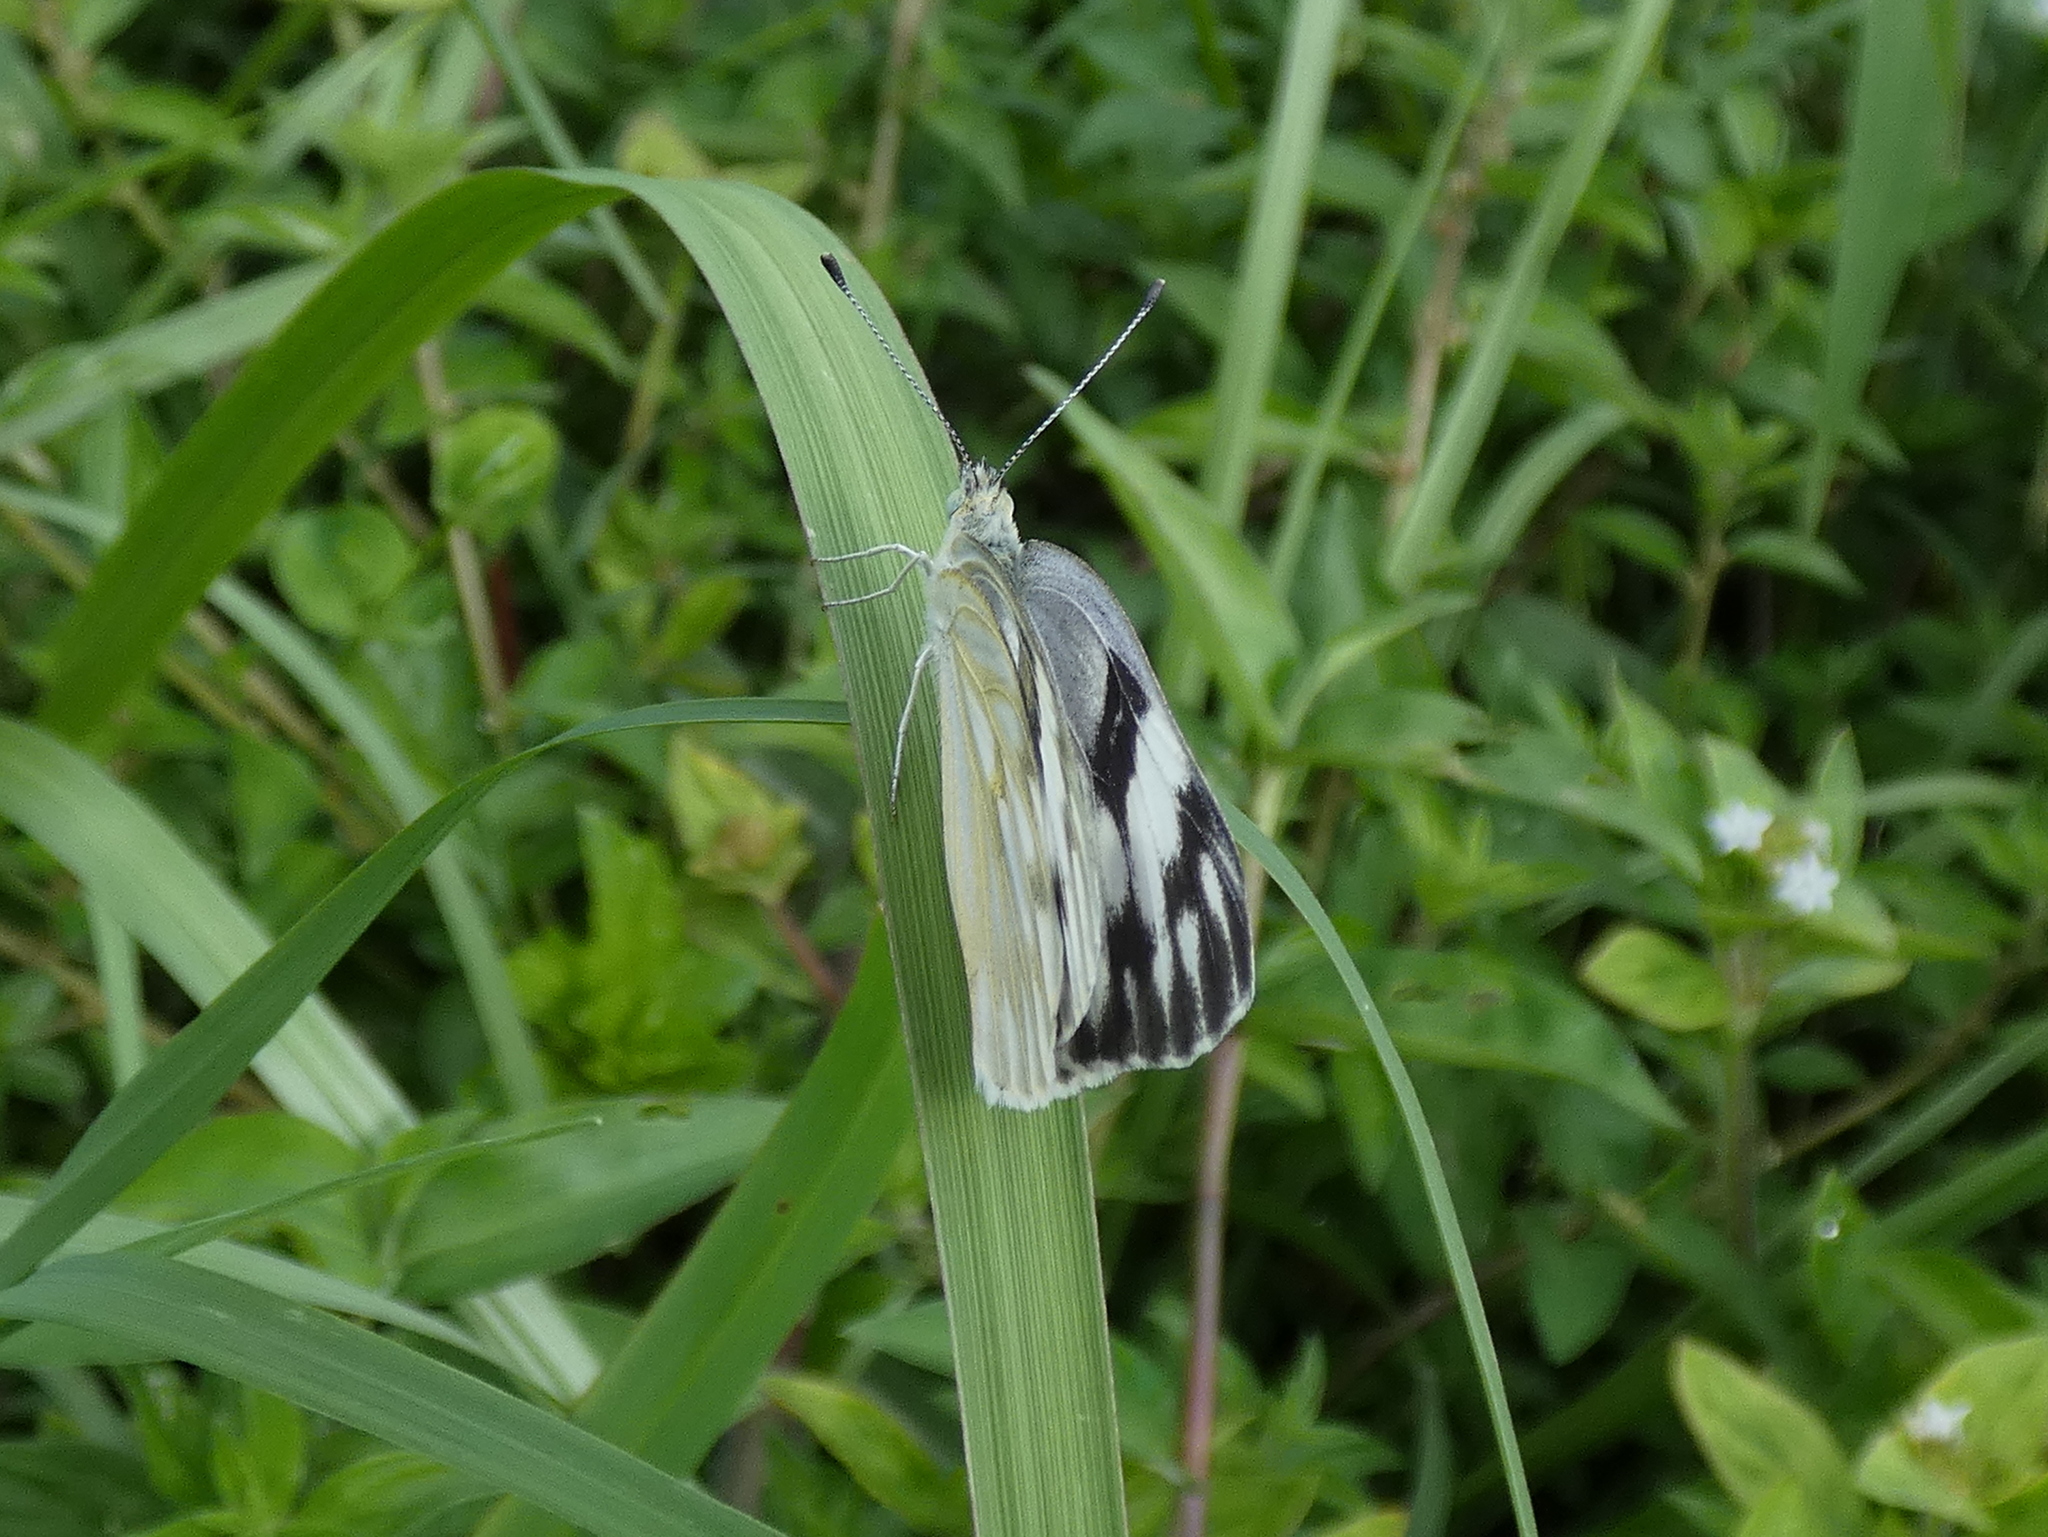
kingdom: Animalia
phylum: Arthropoda
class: Insecta
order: Lepidoptera
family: Pieridae
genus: Pontia
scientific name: Pontia protodice
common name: Checkered white
